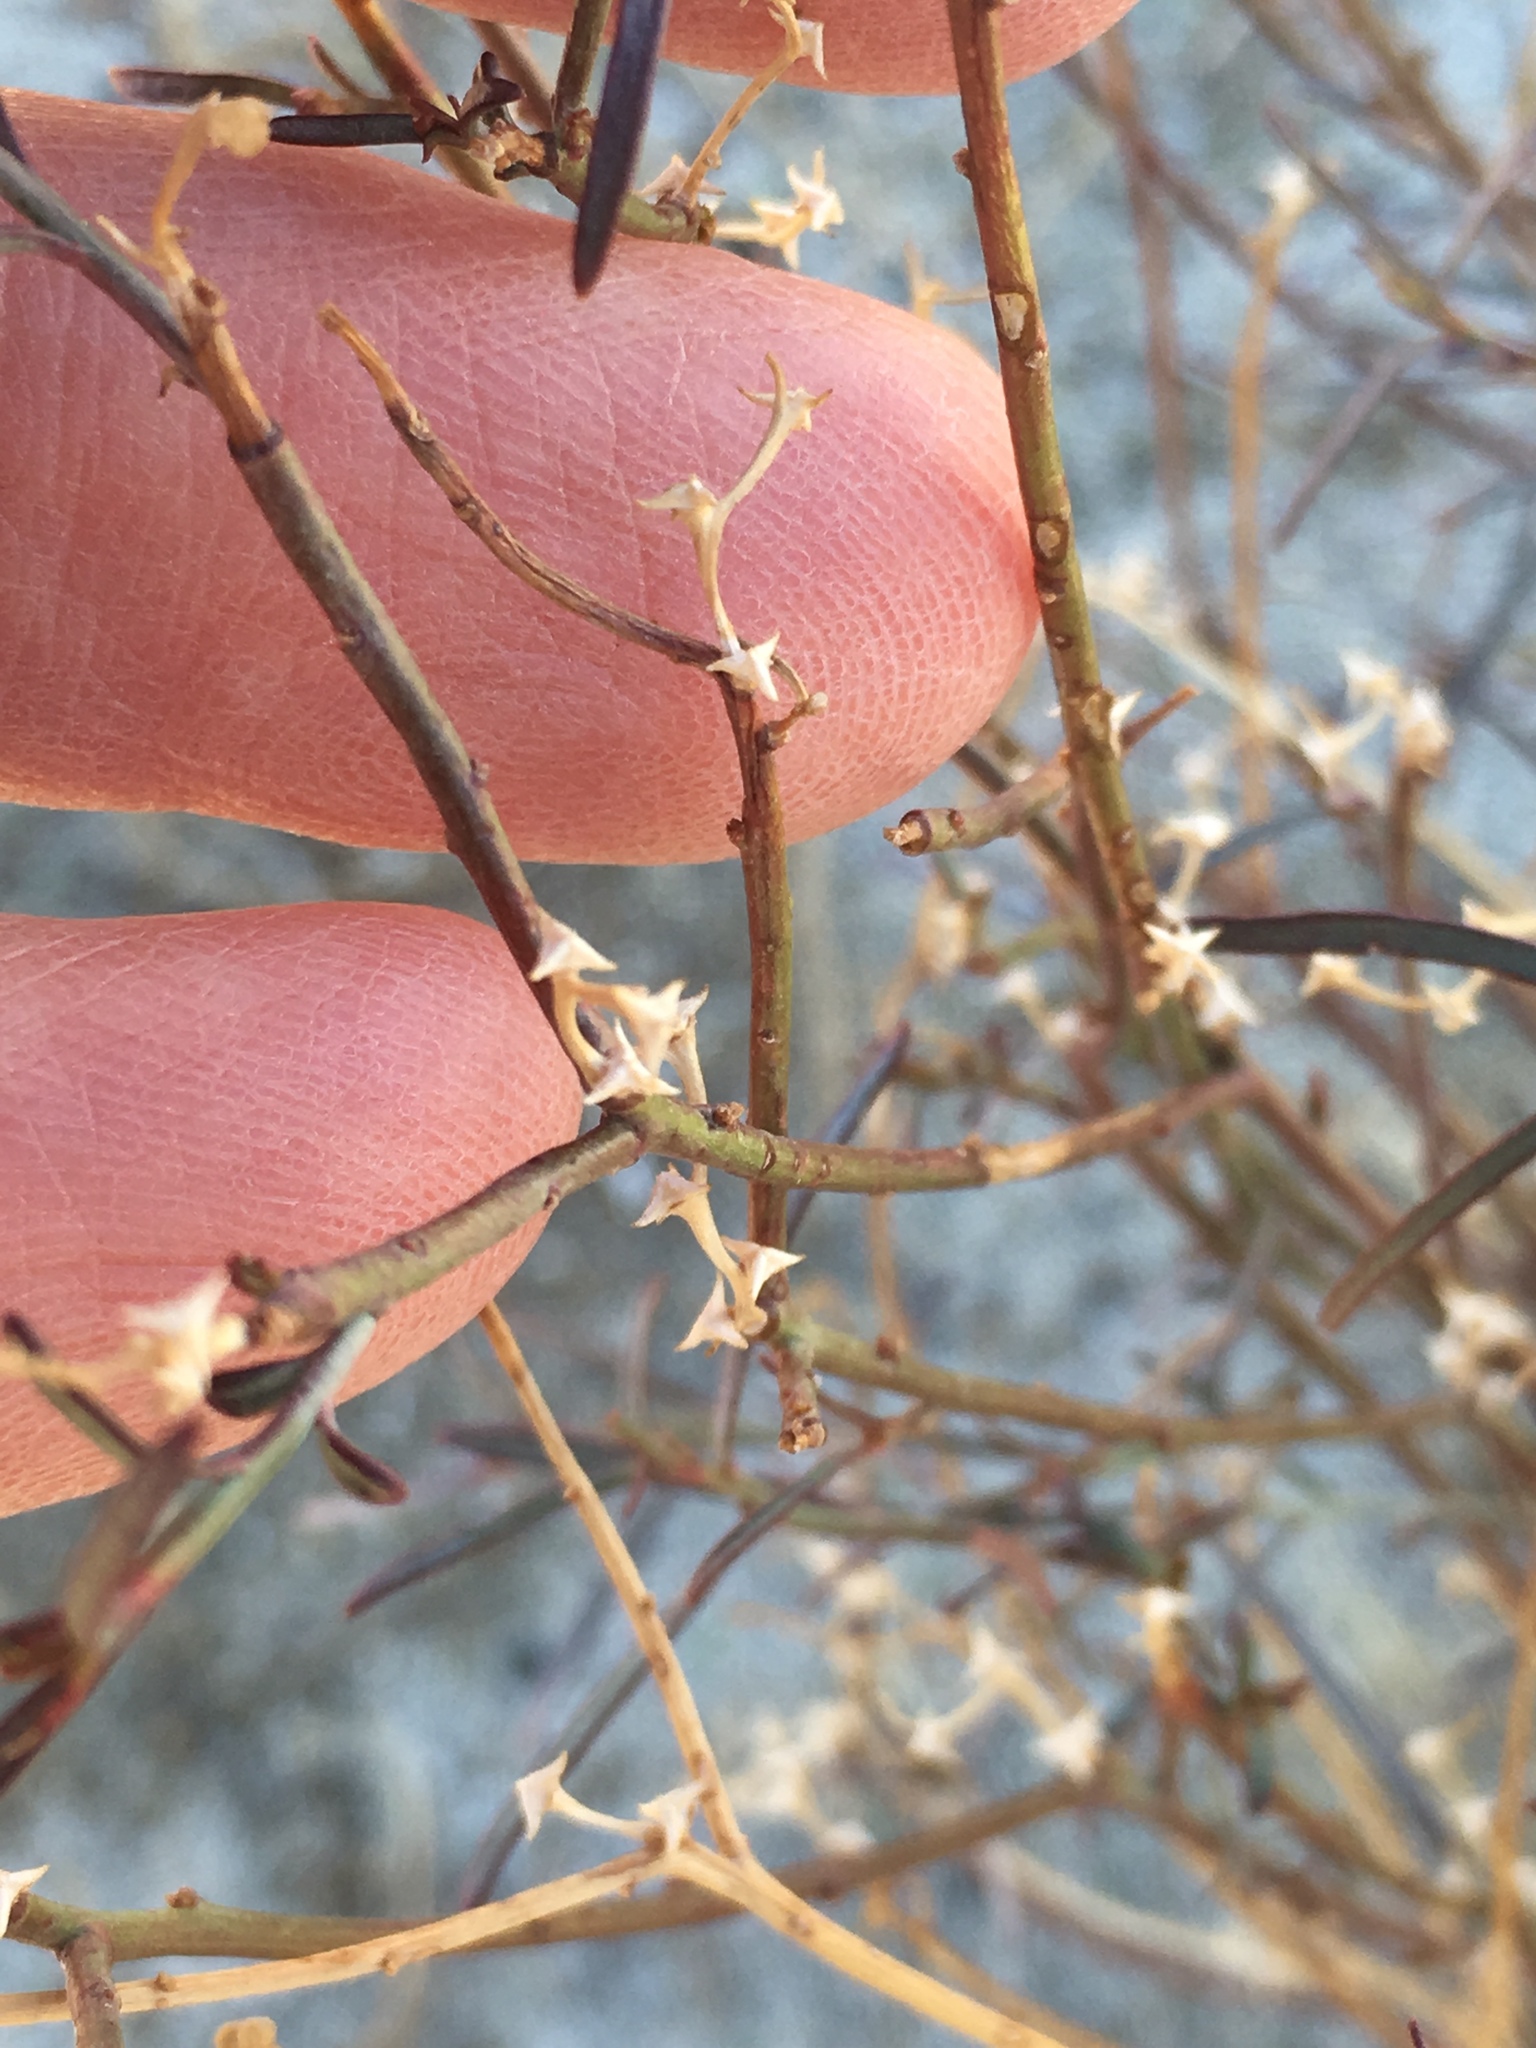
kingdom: Plantae
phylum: Tracheophyta
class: Magnoliopsida
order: Malpighiales
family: Euphorbiaceae
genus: Stillingia
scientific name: Stillingia linearifolia
